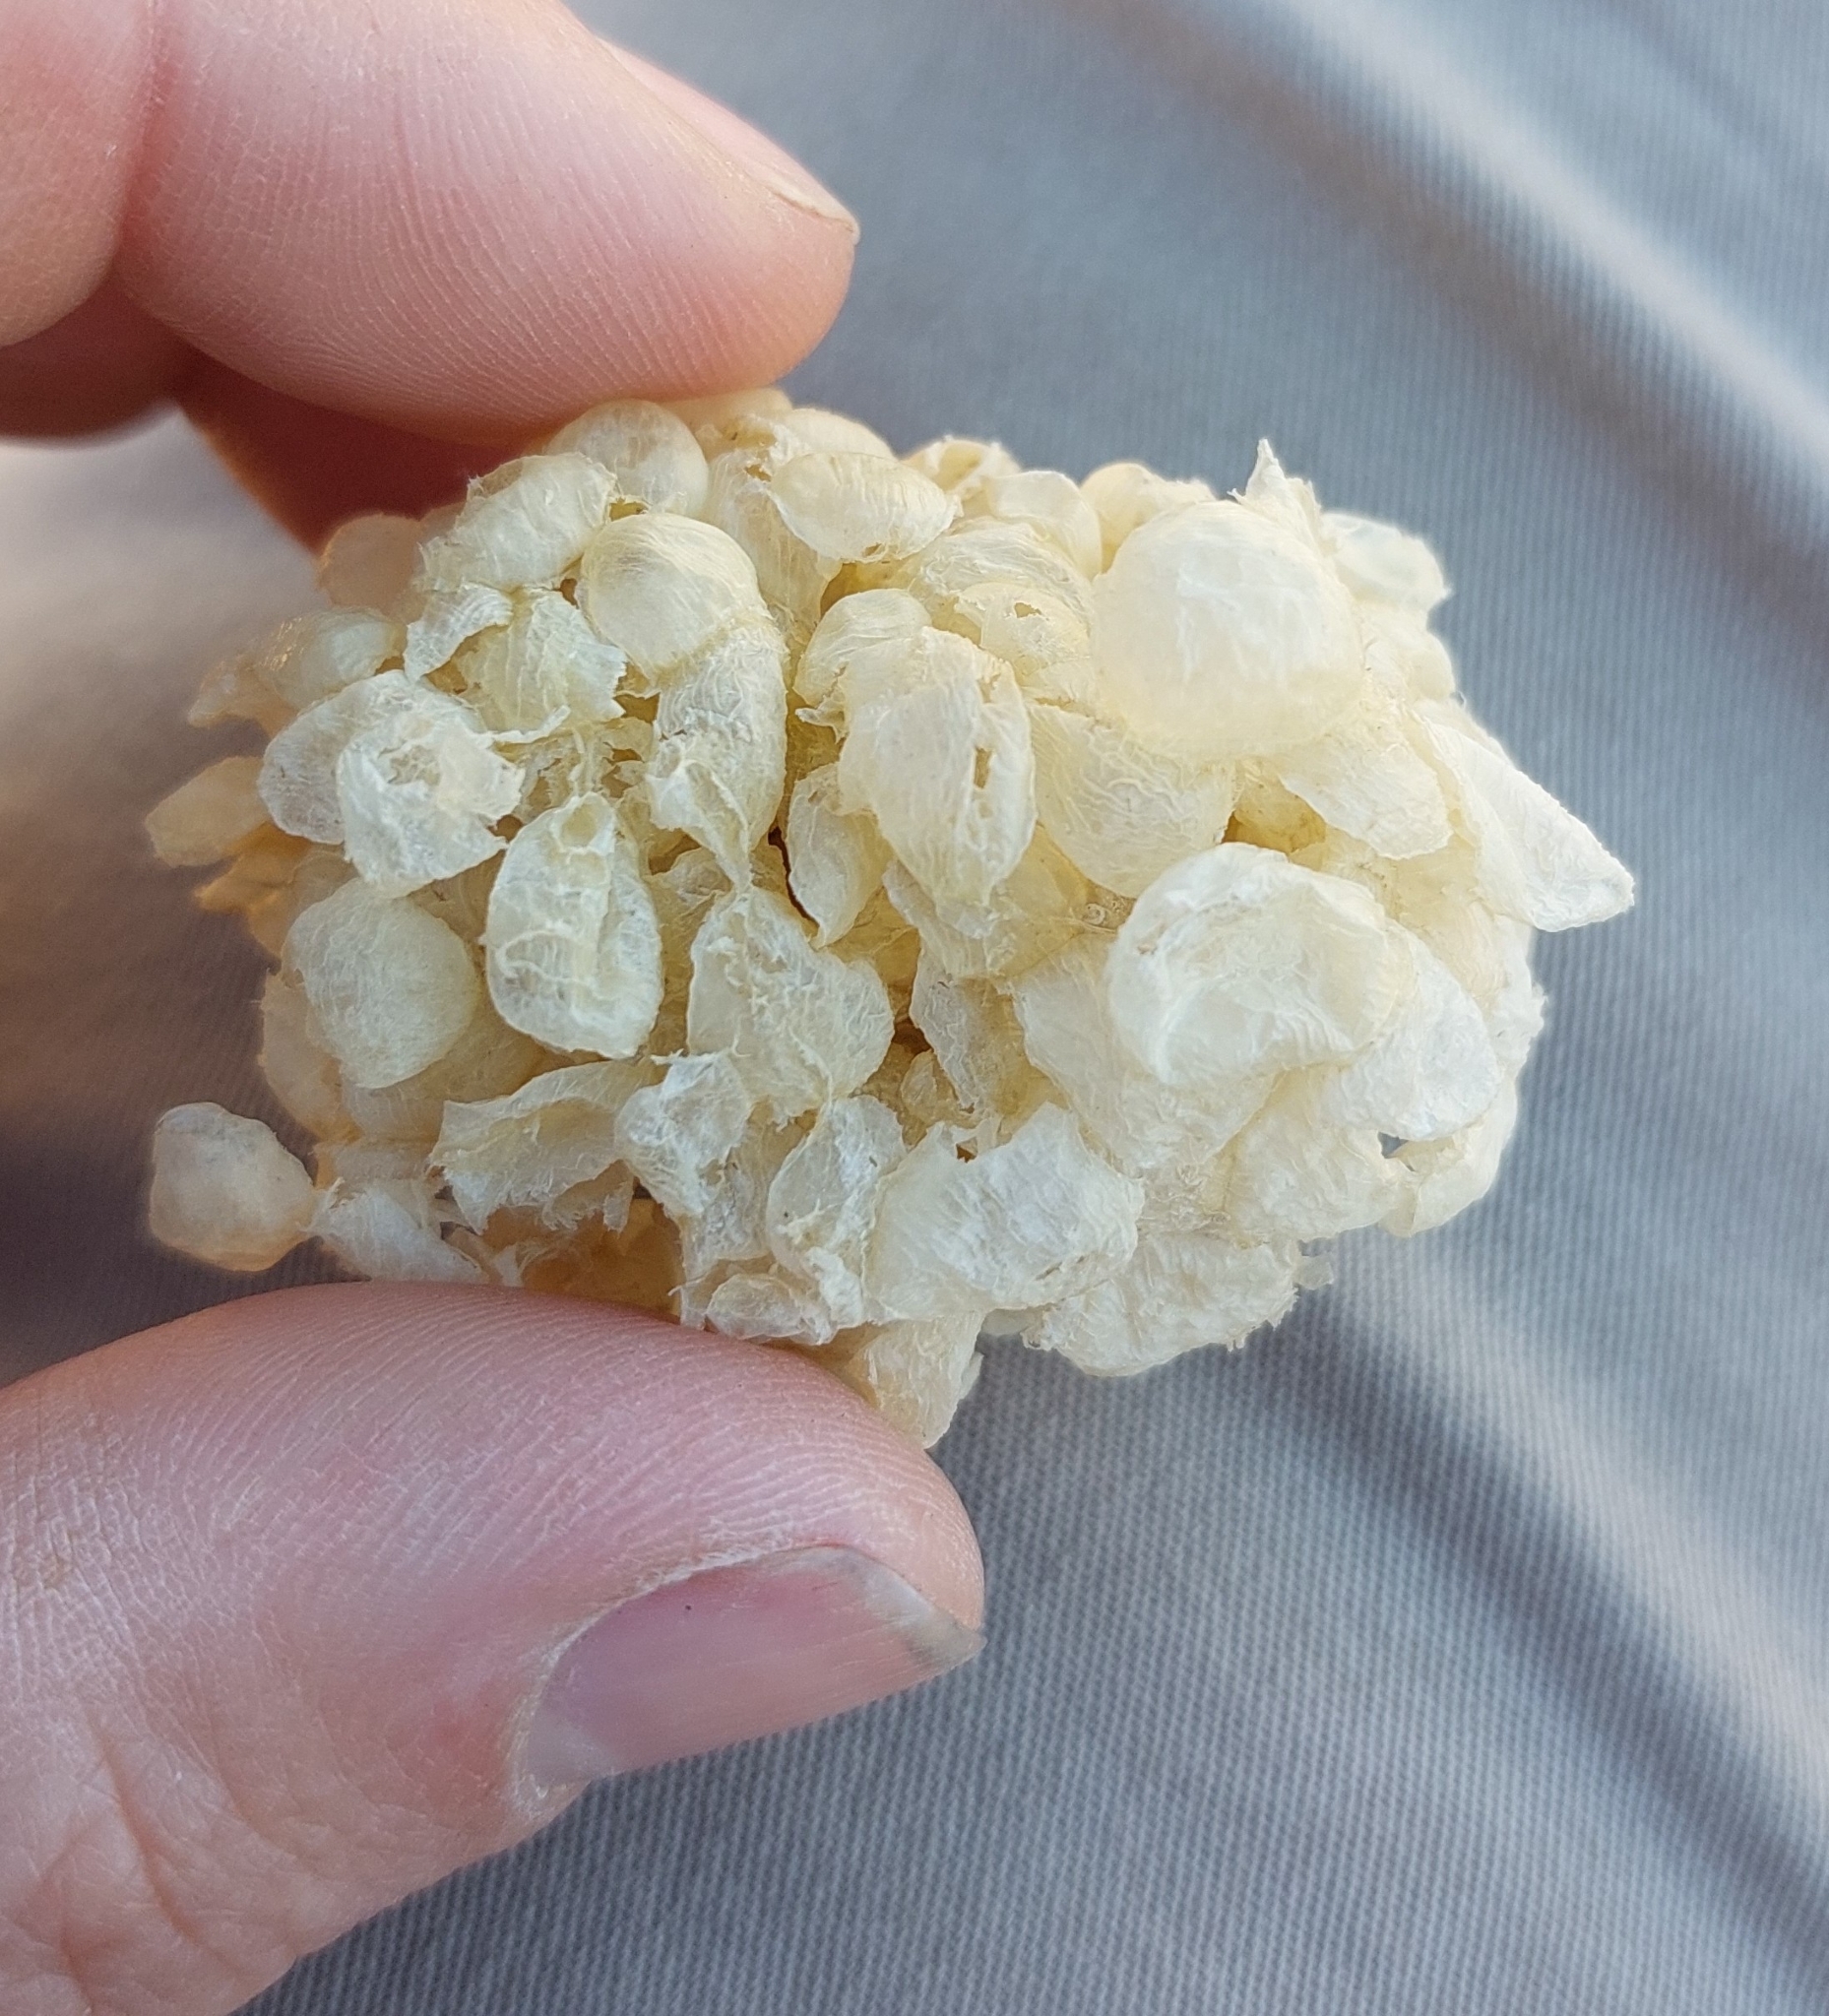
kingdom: Animalia
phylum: Mollusca
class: Gastropoda
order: Neogastropoda
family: Buccinidae
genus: Buccinum
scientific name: Buccinum undatum
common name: Common whelk
